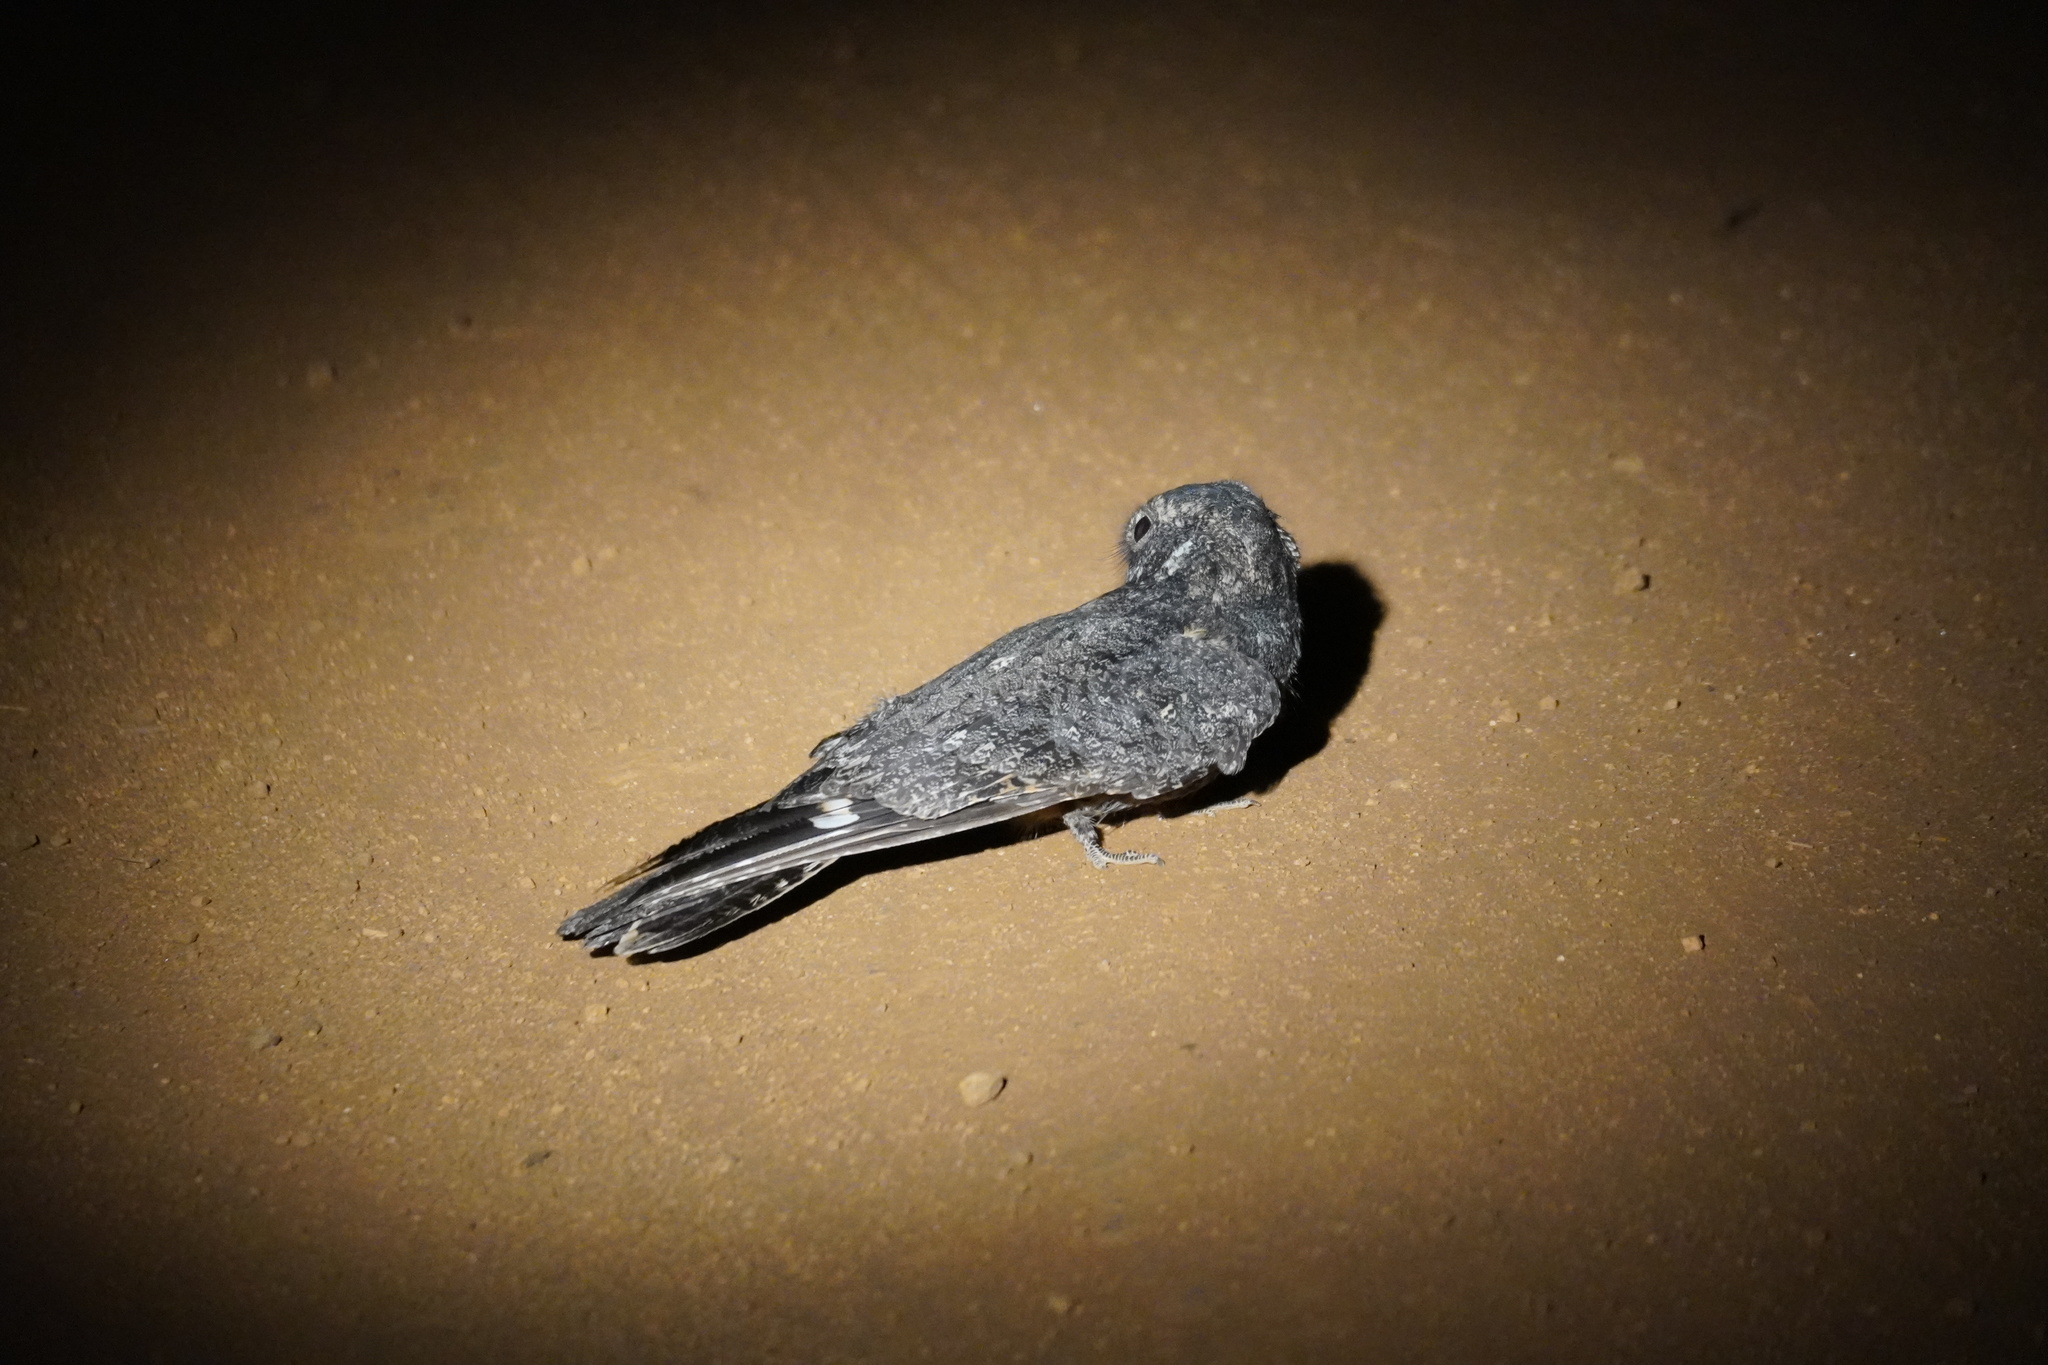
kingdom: Animalia
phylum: Chordata
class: Aves
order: Caprimulgiformes
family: Caprimulgidae
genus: Caprimulgus
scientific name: Caprimulgus tristigma
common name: Freckled nightjar
